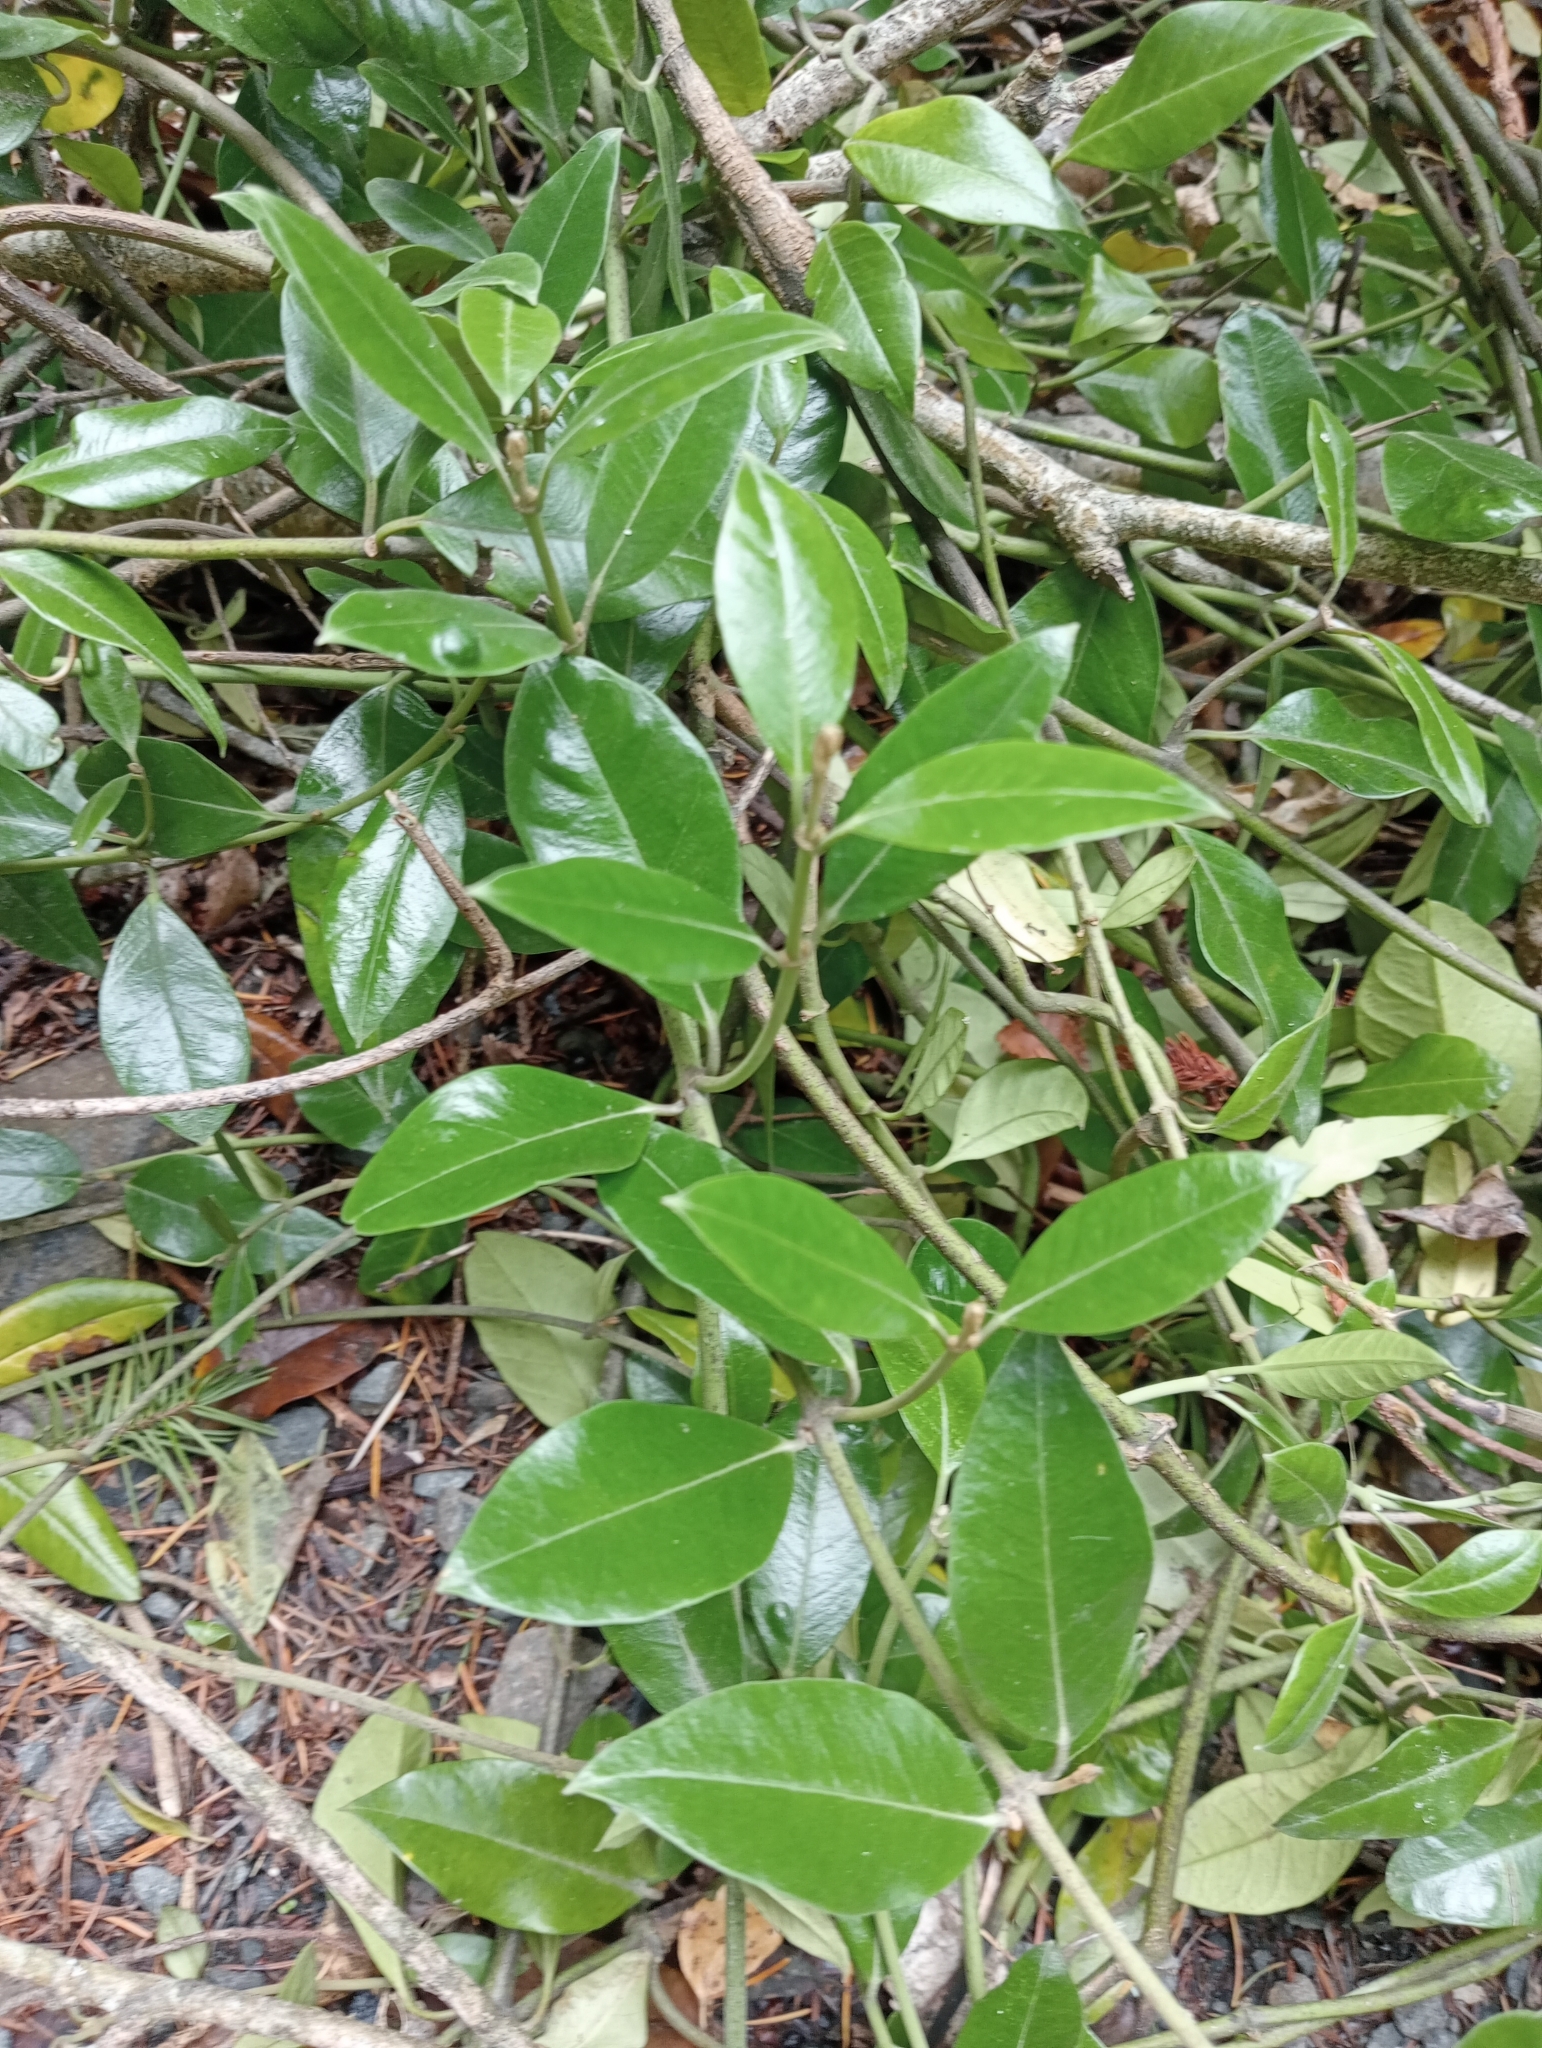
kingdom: Plantae
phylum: Tracheophyta
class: Magnoliopsida
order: Gentianales
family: Apocynaceae
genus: Parsonsia
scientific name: Parsonsia heterophylla
